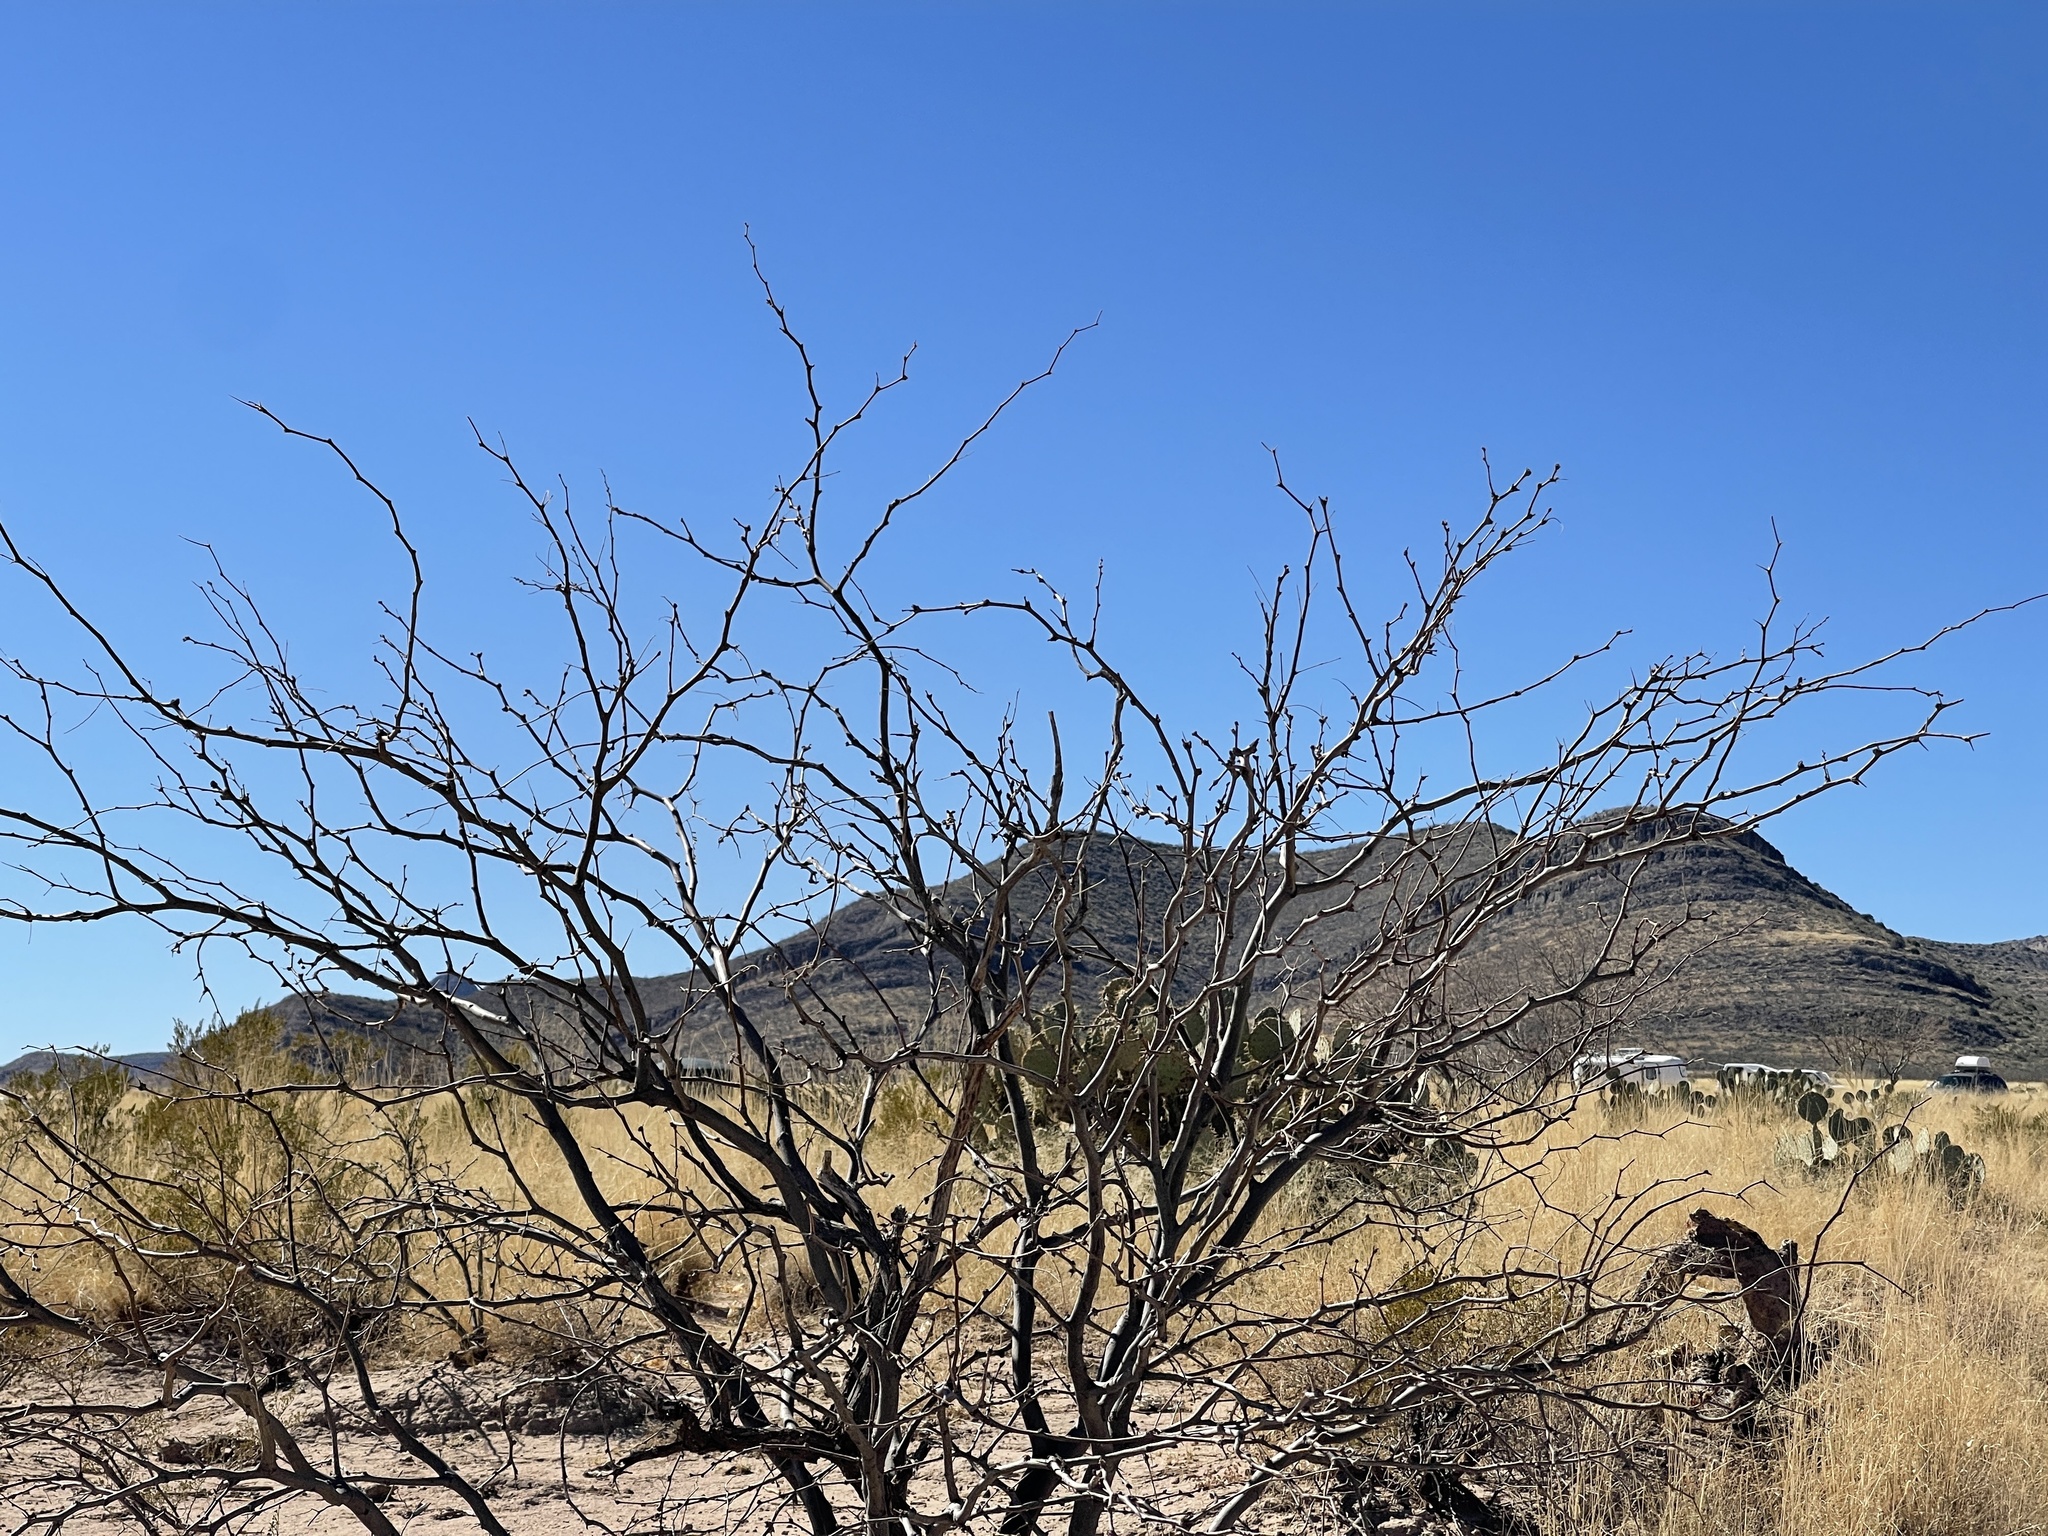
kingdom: Plantae
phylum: Tracheophyta
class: Magnoliopsida
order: Fabales
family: Fabaceae
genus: Prosopis
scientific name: Prosopis glandulosa
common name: Honey mesquite
